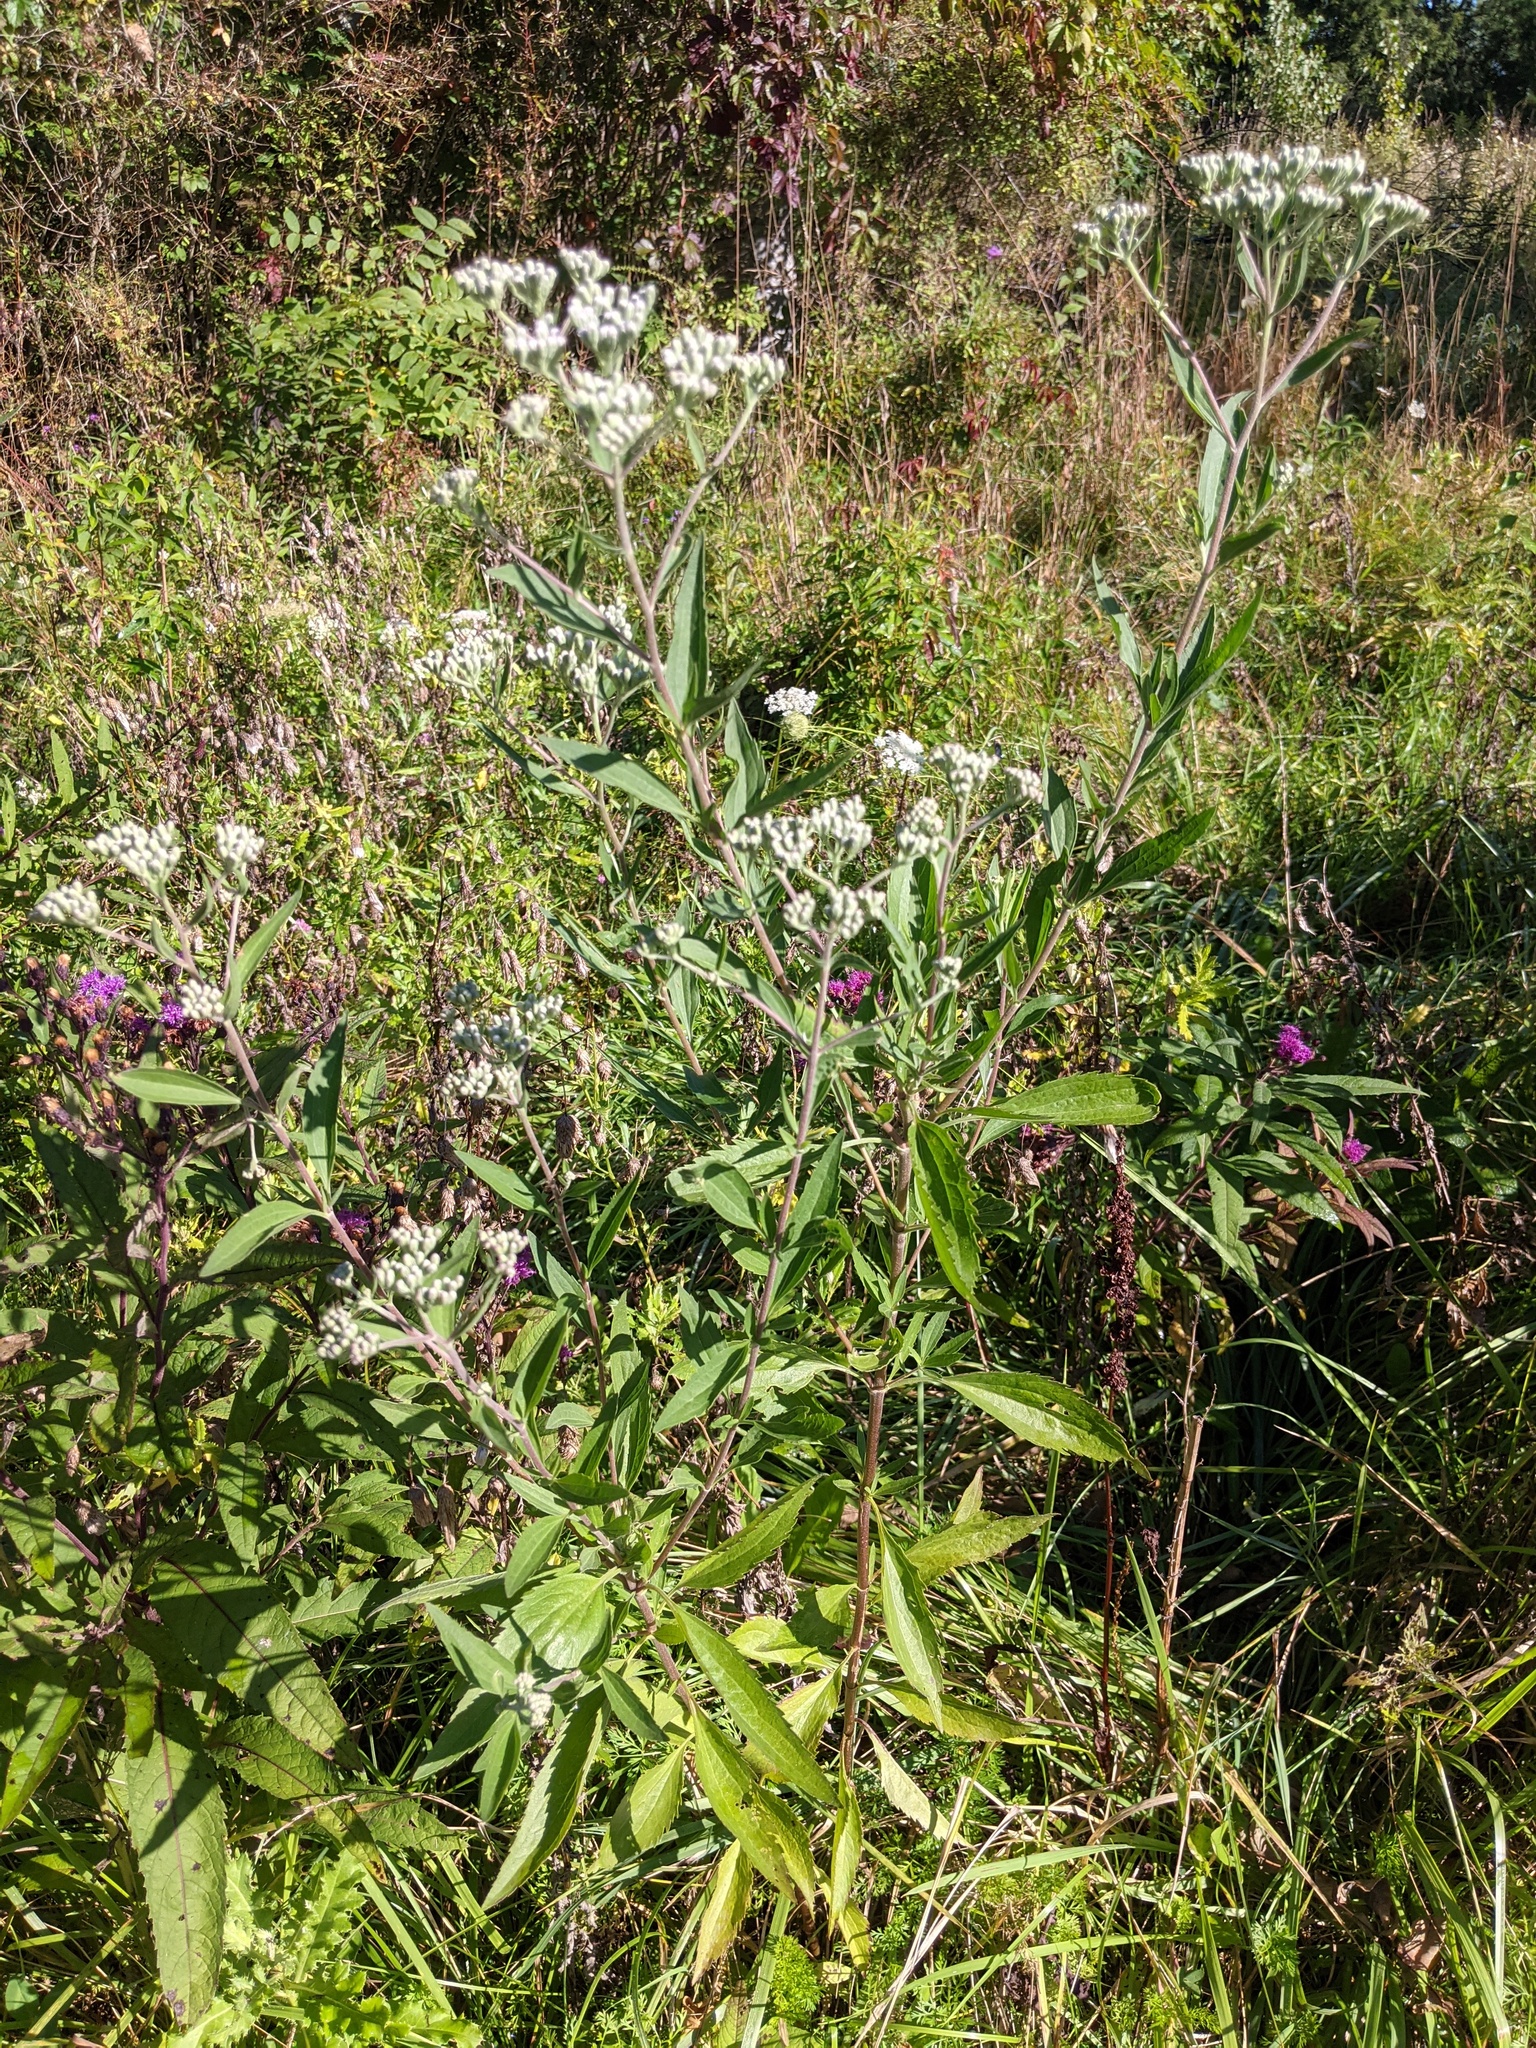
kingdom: Plantae
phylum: Tracheophyta
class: Magnoliopsida
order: Asterales
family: Asteraceae
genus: Eupatorium
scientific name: Eupatorium serotinum
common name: Late boneset
